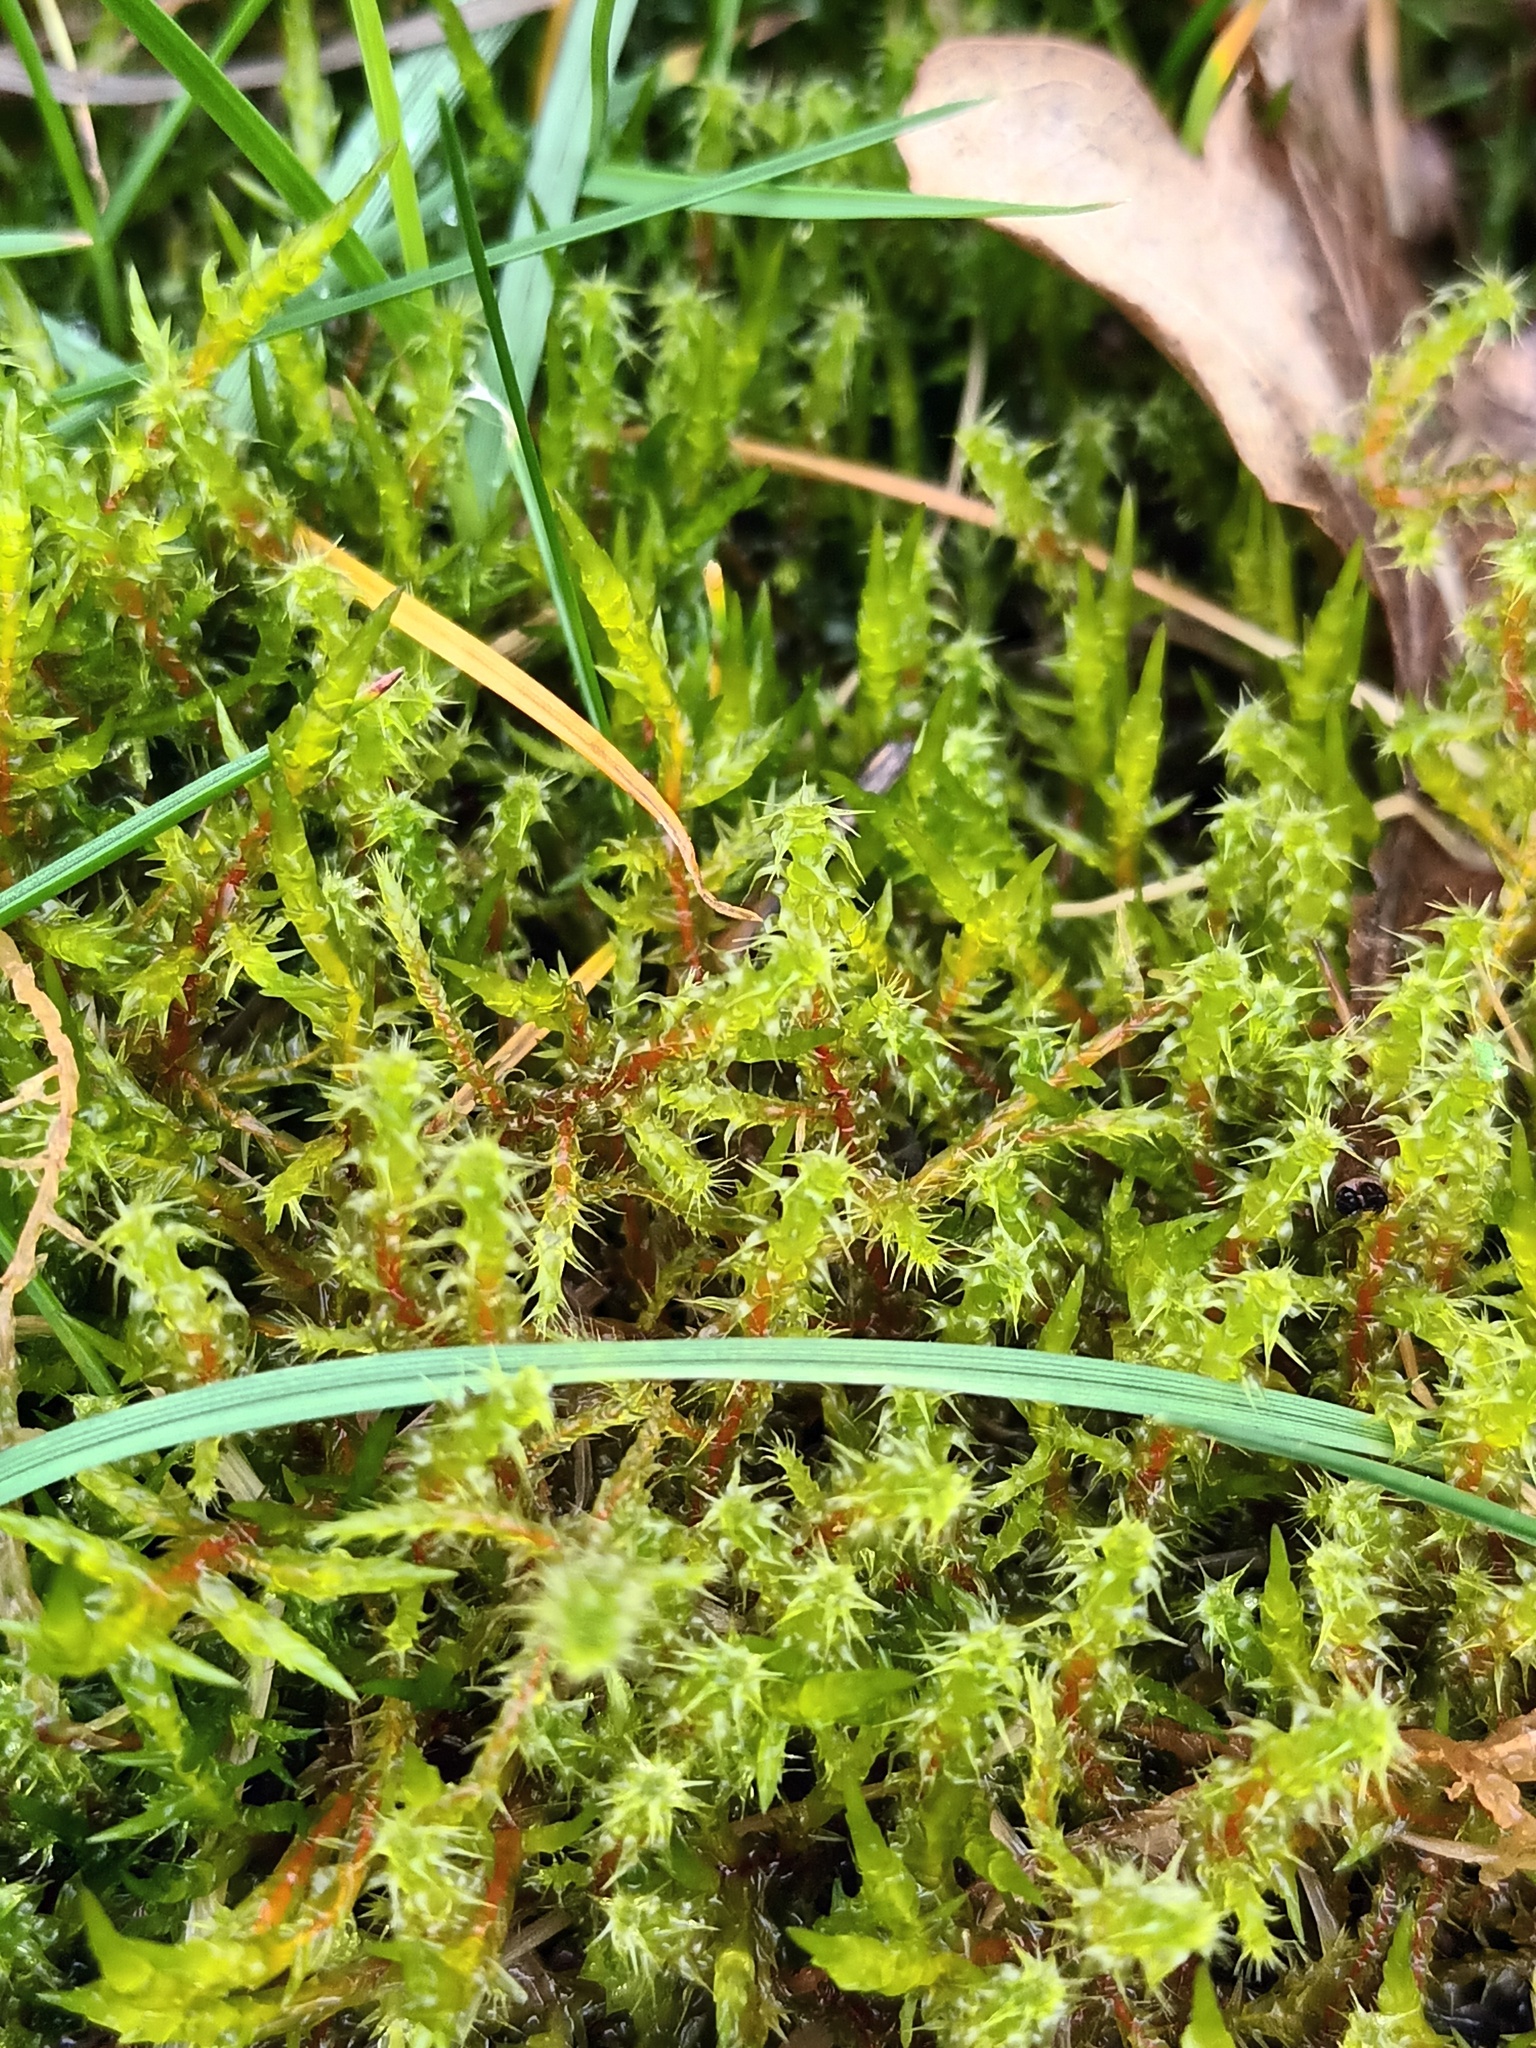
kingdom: Plantae
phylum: Bryophyta
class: Bryopsida
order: Hypnales
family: Hylocomiaceae
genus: Rhytidiadelphus
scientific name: Rhytidiadelphus squarrosus
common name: Springy turf-moss
